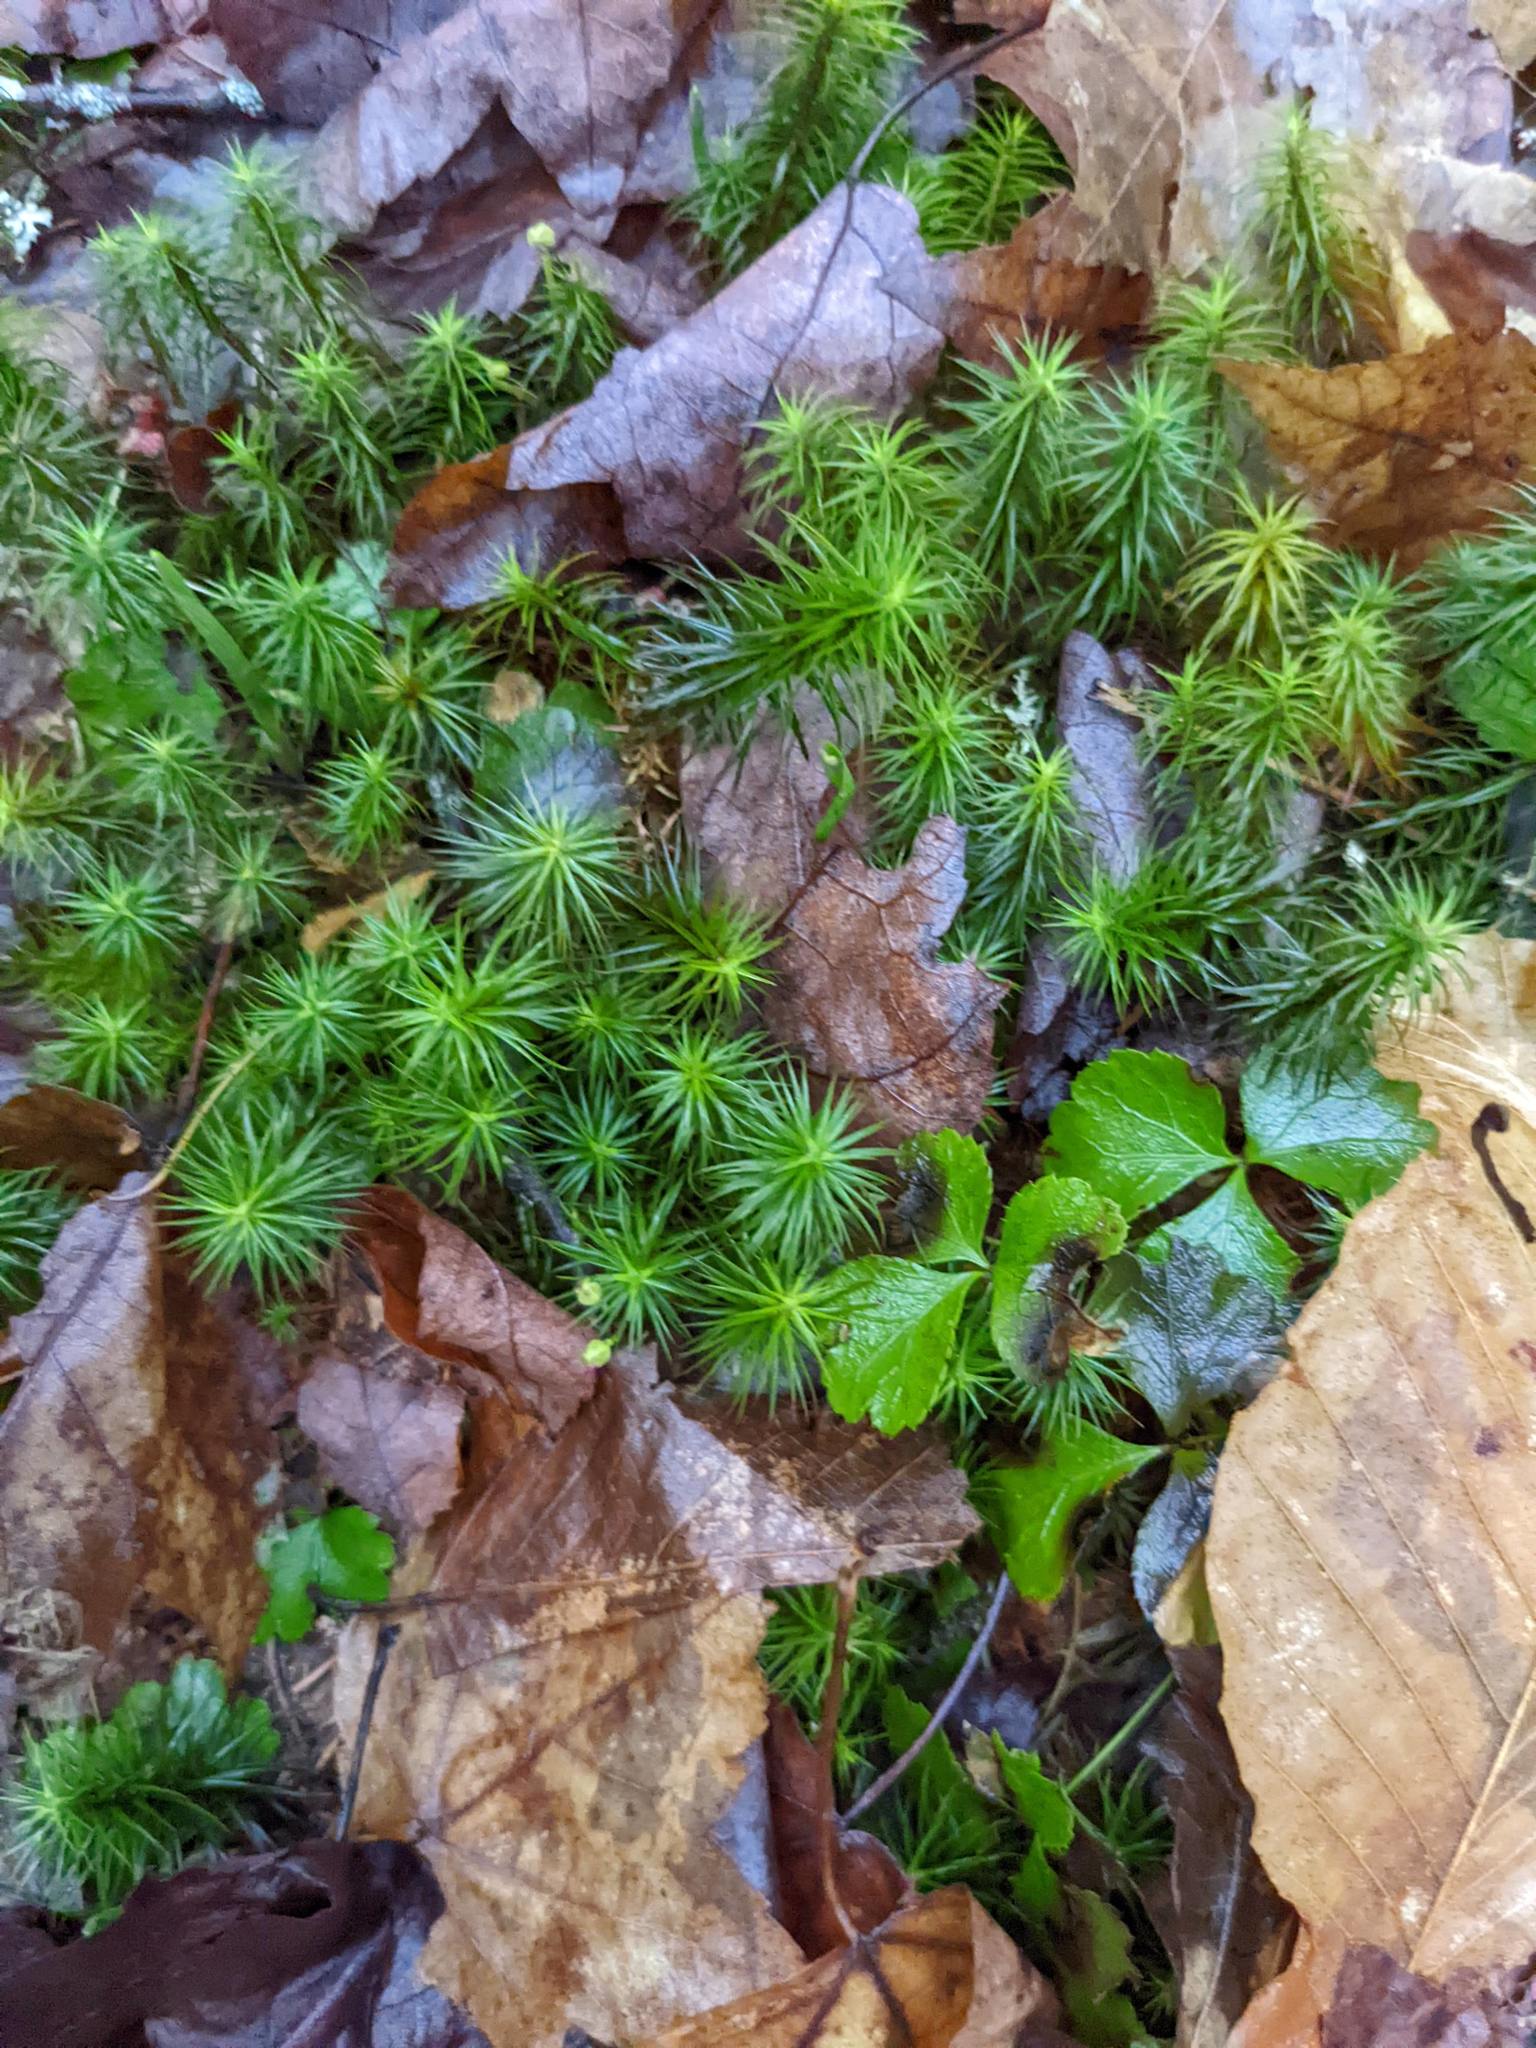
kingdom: Plantae
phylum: Tracheophyta
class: Magnoliopsida
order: Ranunculales
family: Ranunculaceae
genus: Coptis
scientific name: Coptis trifolia
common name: Canker-root
